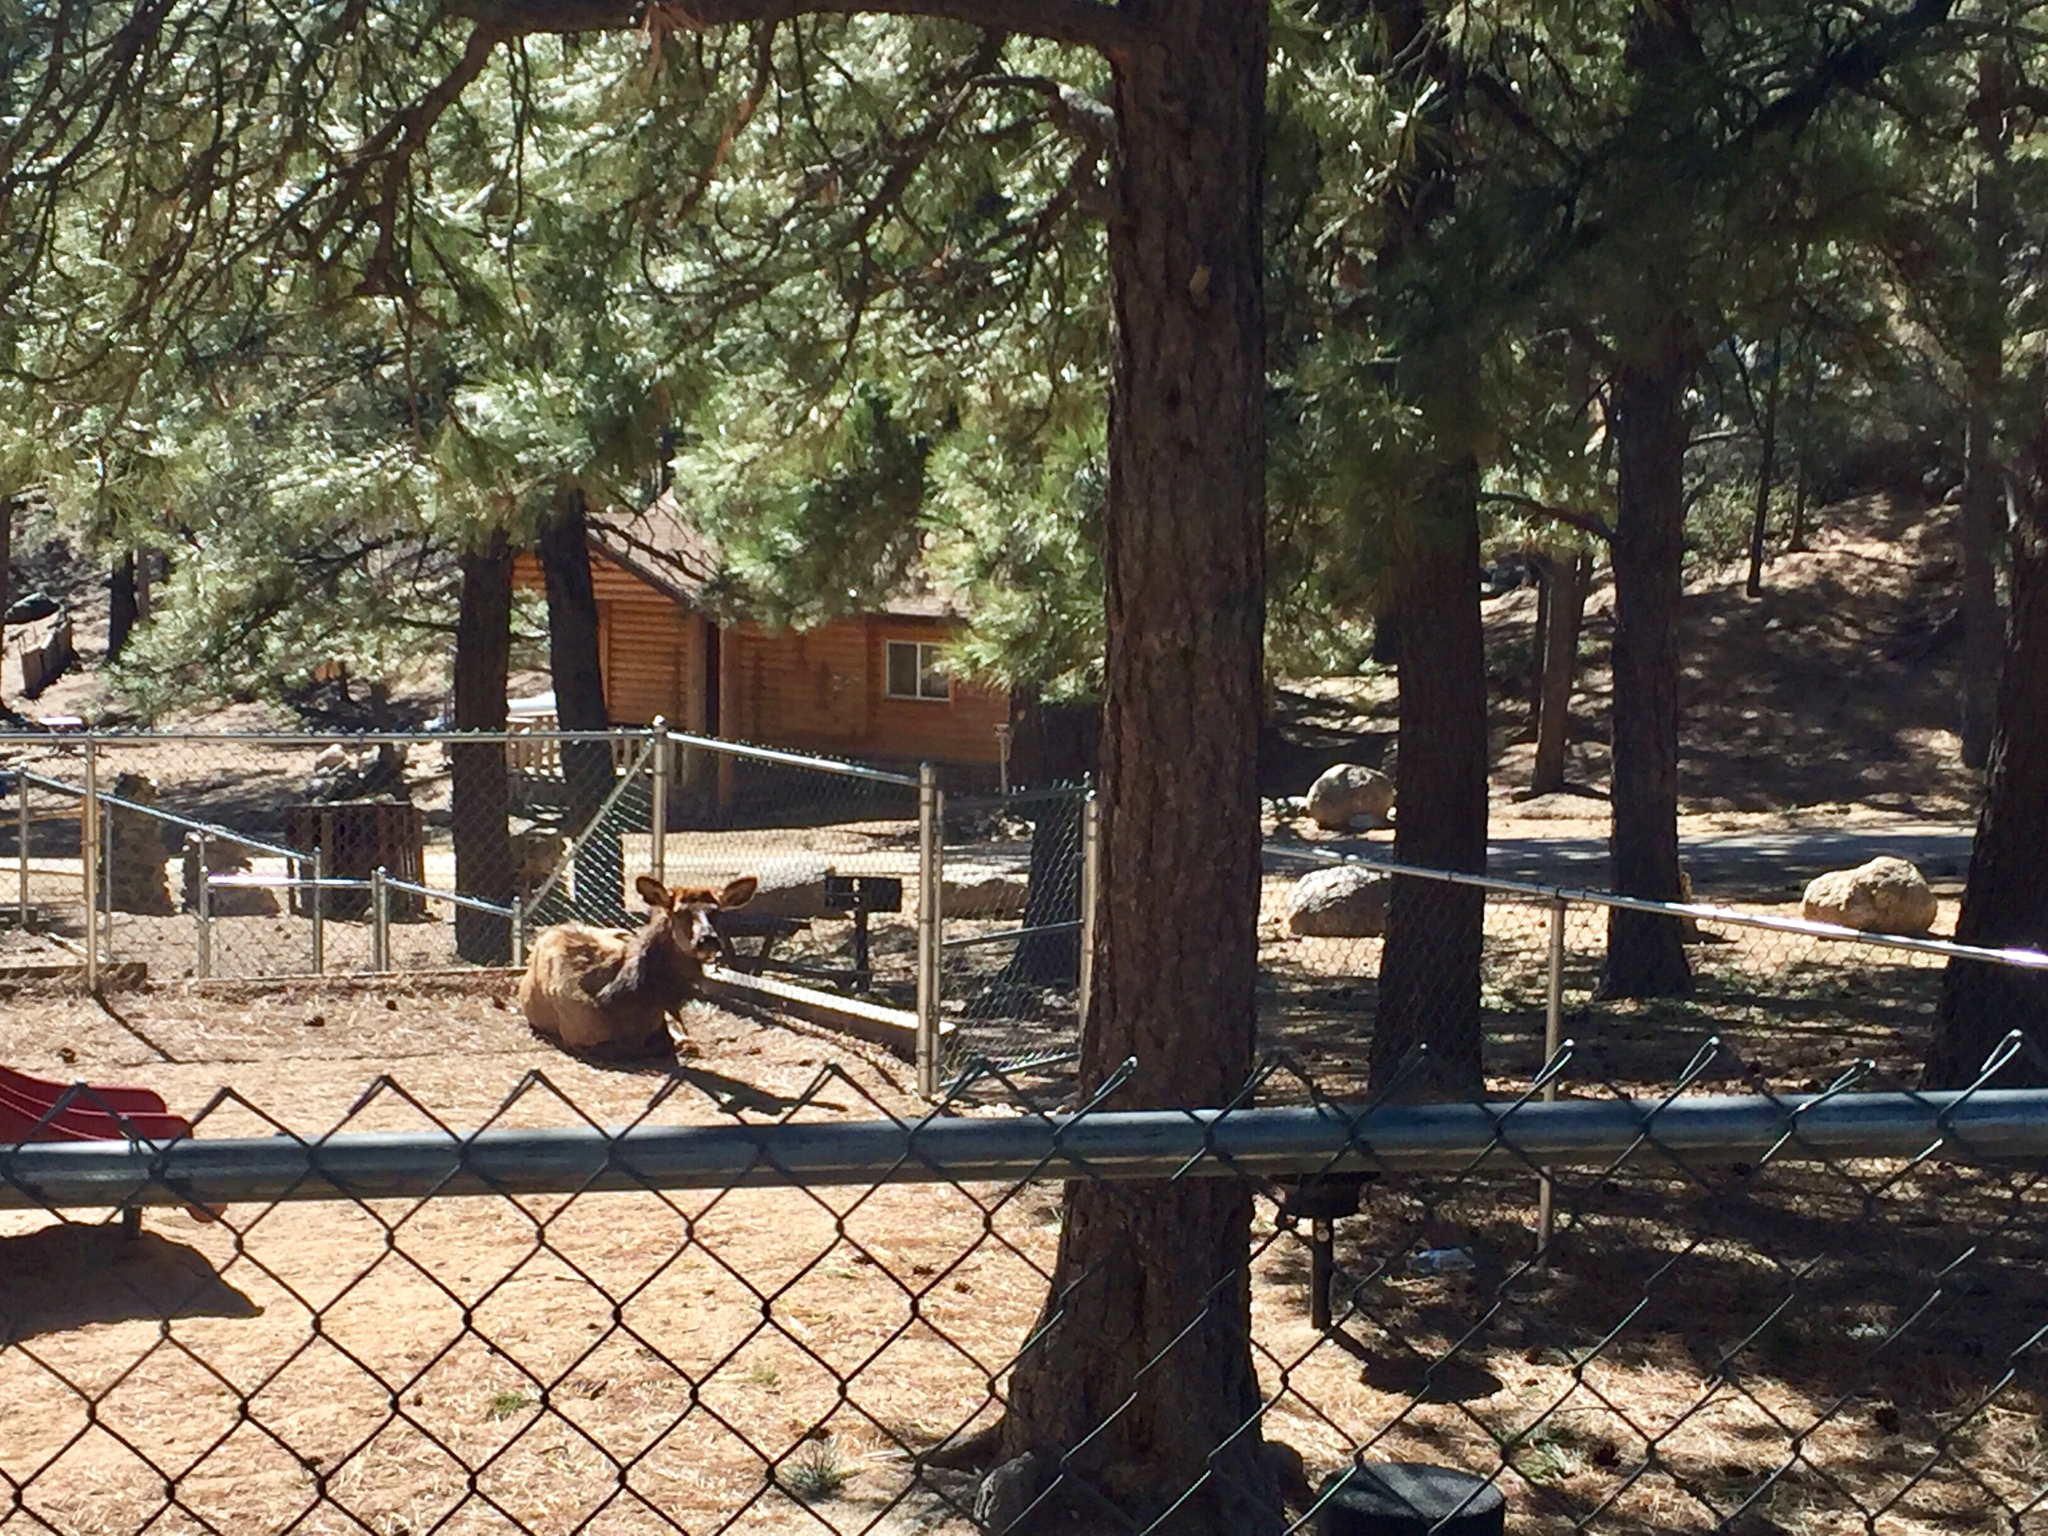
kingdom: Animalia
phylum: Chordata
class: Mammalia
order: Artiodactyla
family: Cervidae
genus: Cervus
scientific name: Cervus elaphus
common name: Red deer
